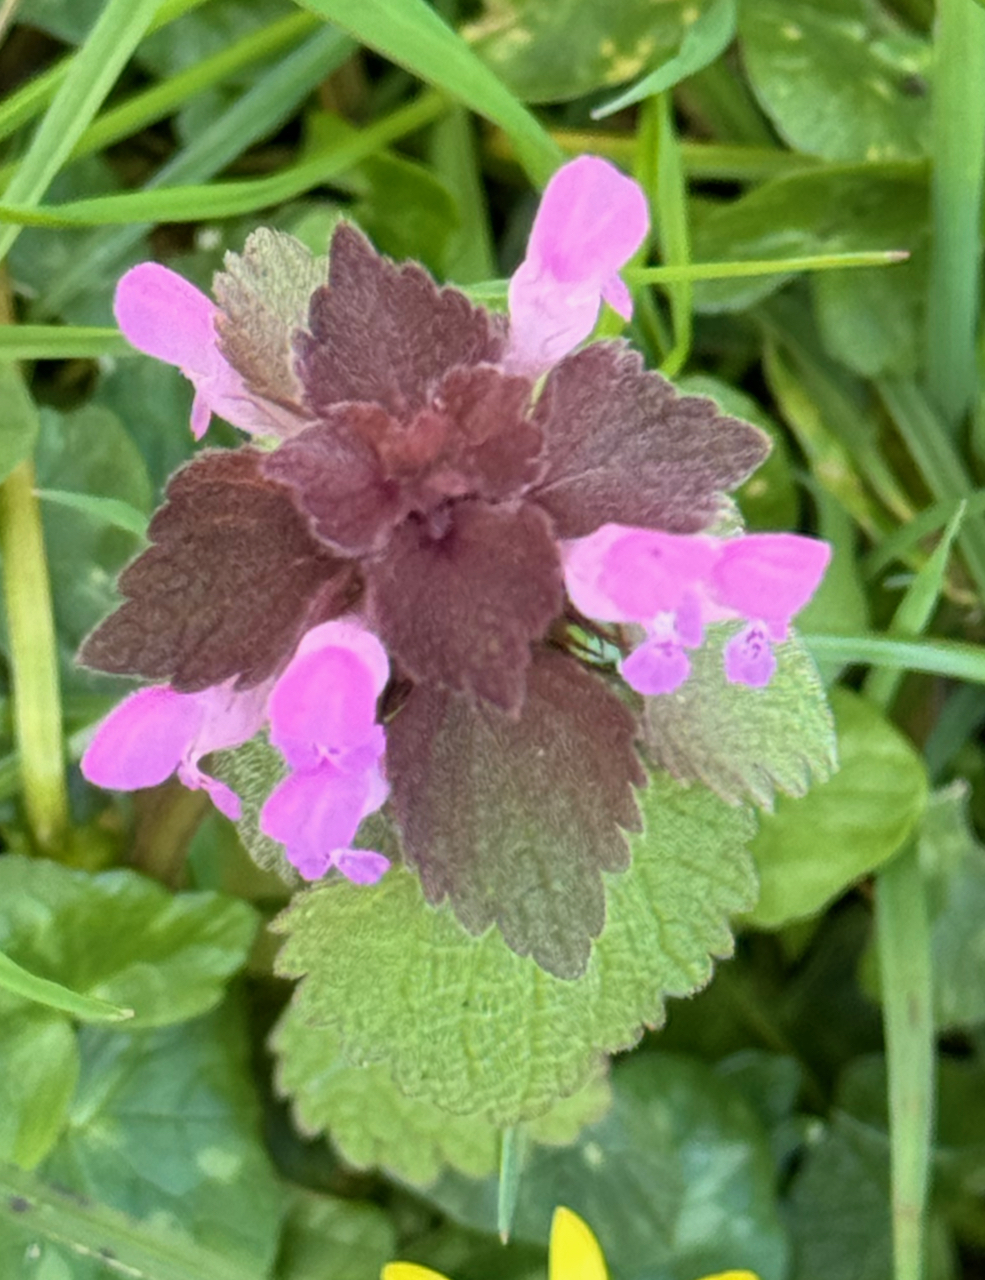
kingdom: Plantae
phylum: Tracheophyta
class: Magnoliopsida
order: Lamiales
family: Lamiaceae
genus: Lamium
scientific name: Lamium purpureum
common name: Red dead-nettle
